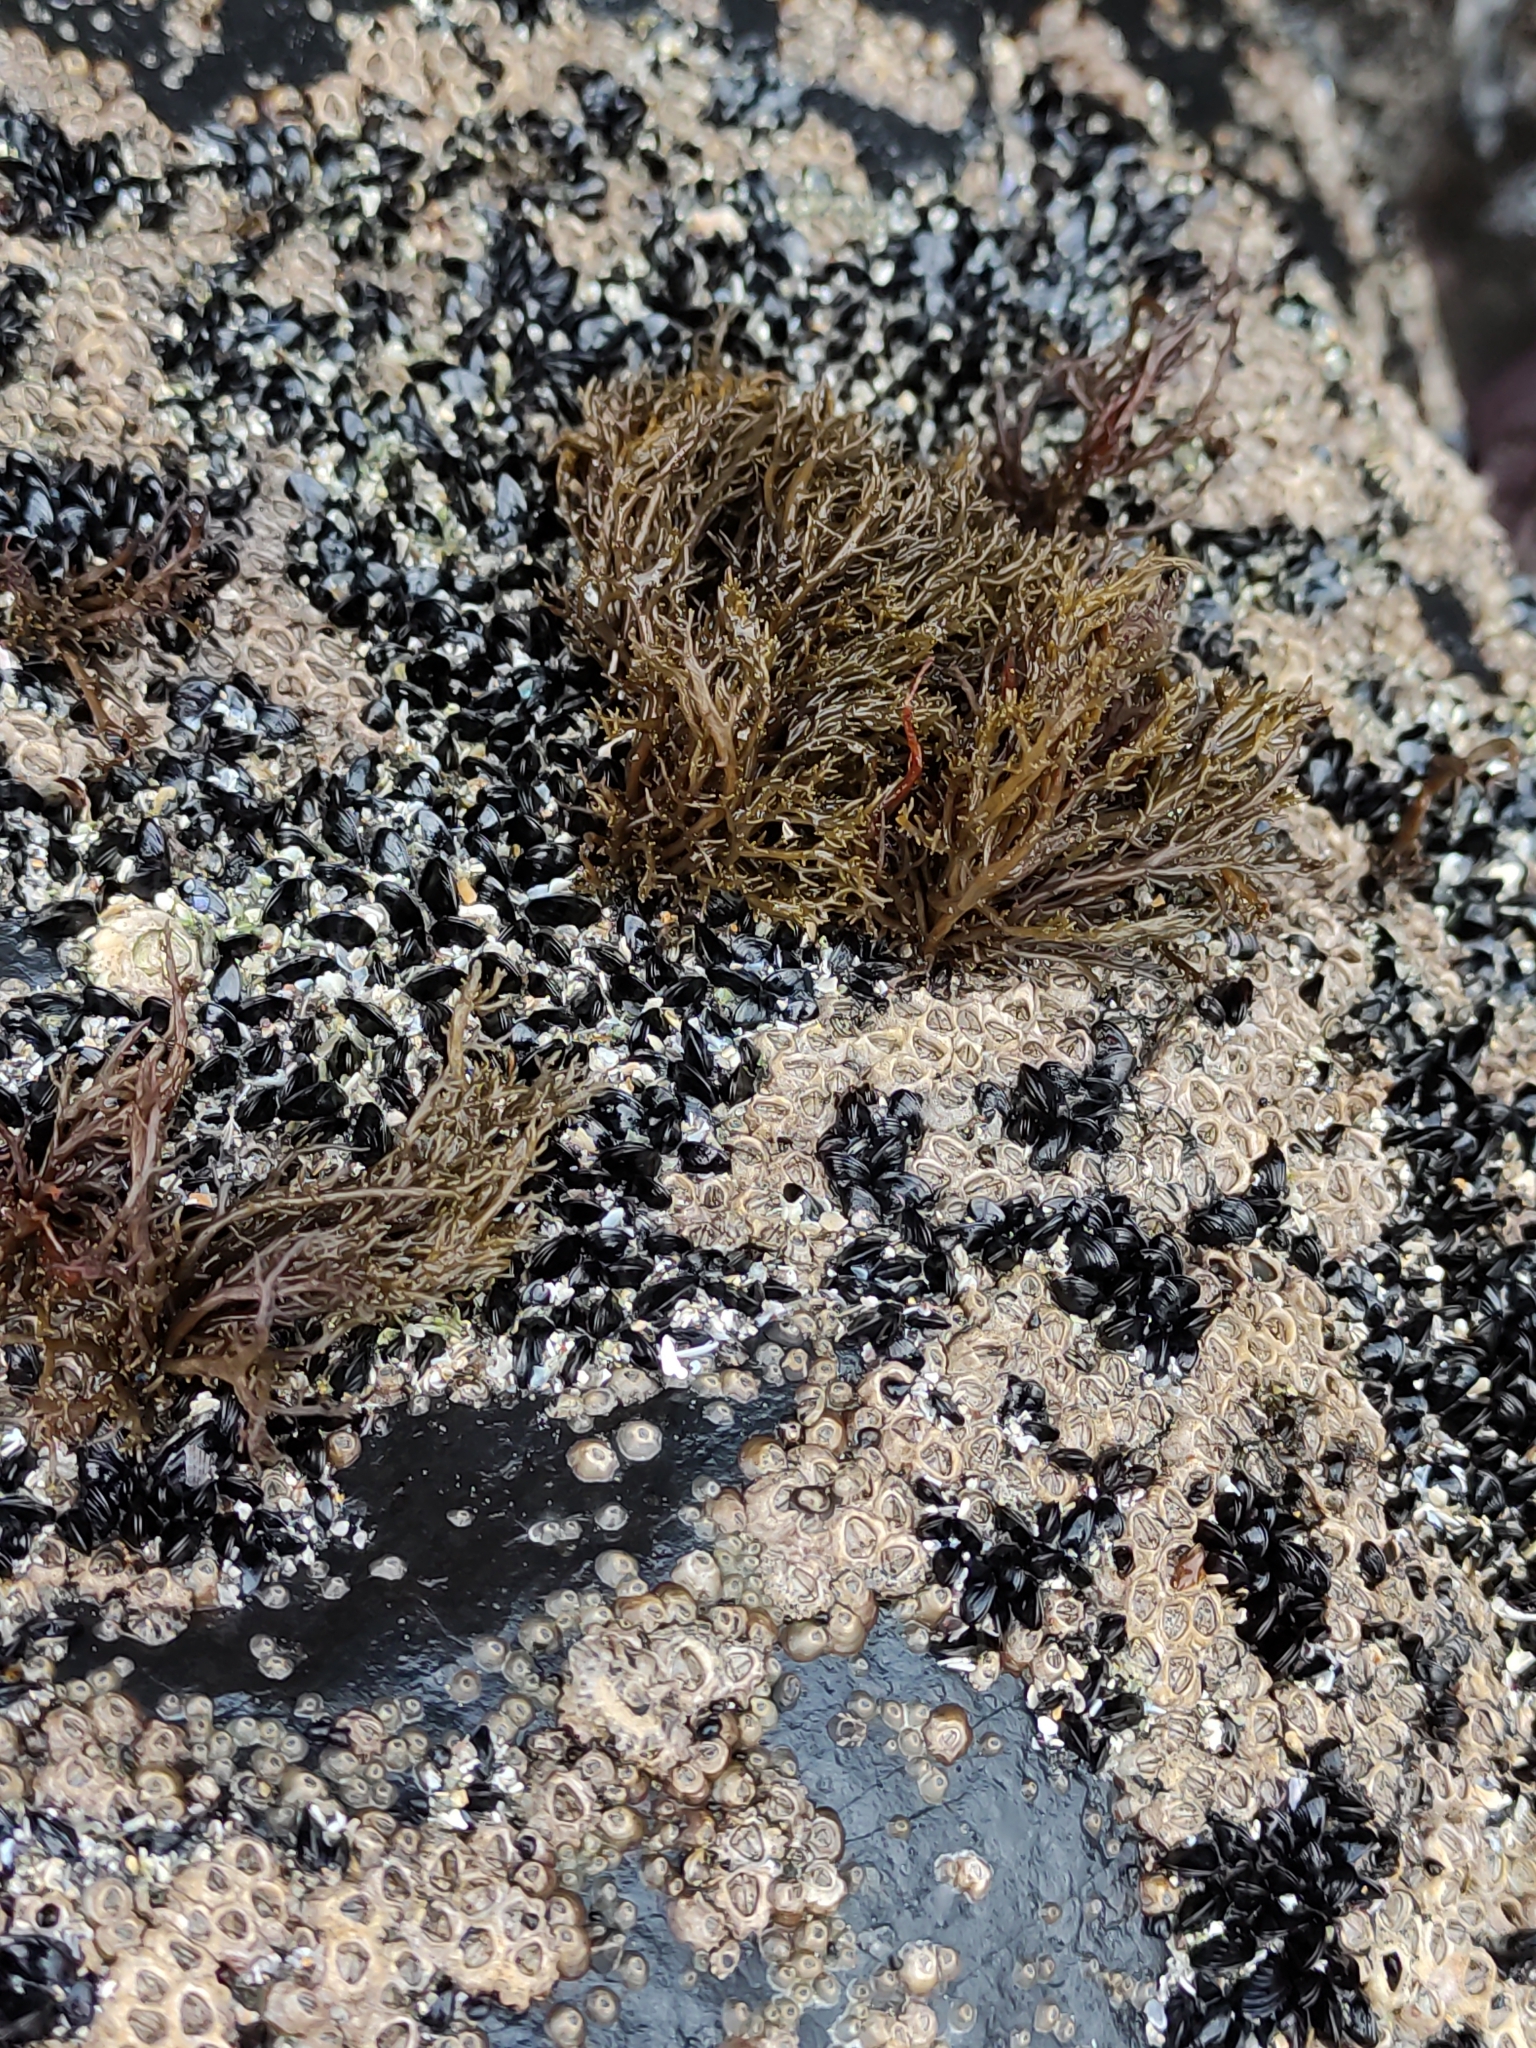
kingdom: Chromista
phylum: Ochrophyta
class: Phaeophyceae
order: Scytothamnales
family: Scytothamnaceae
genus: Scytothamnus
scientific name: Scytothamnus australis
